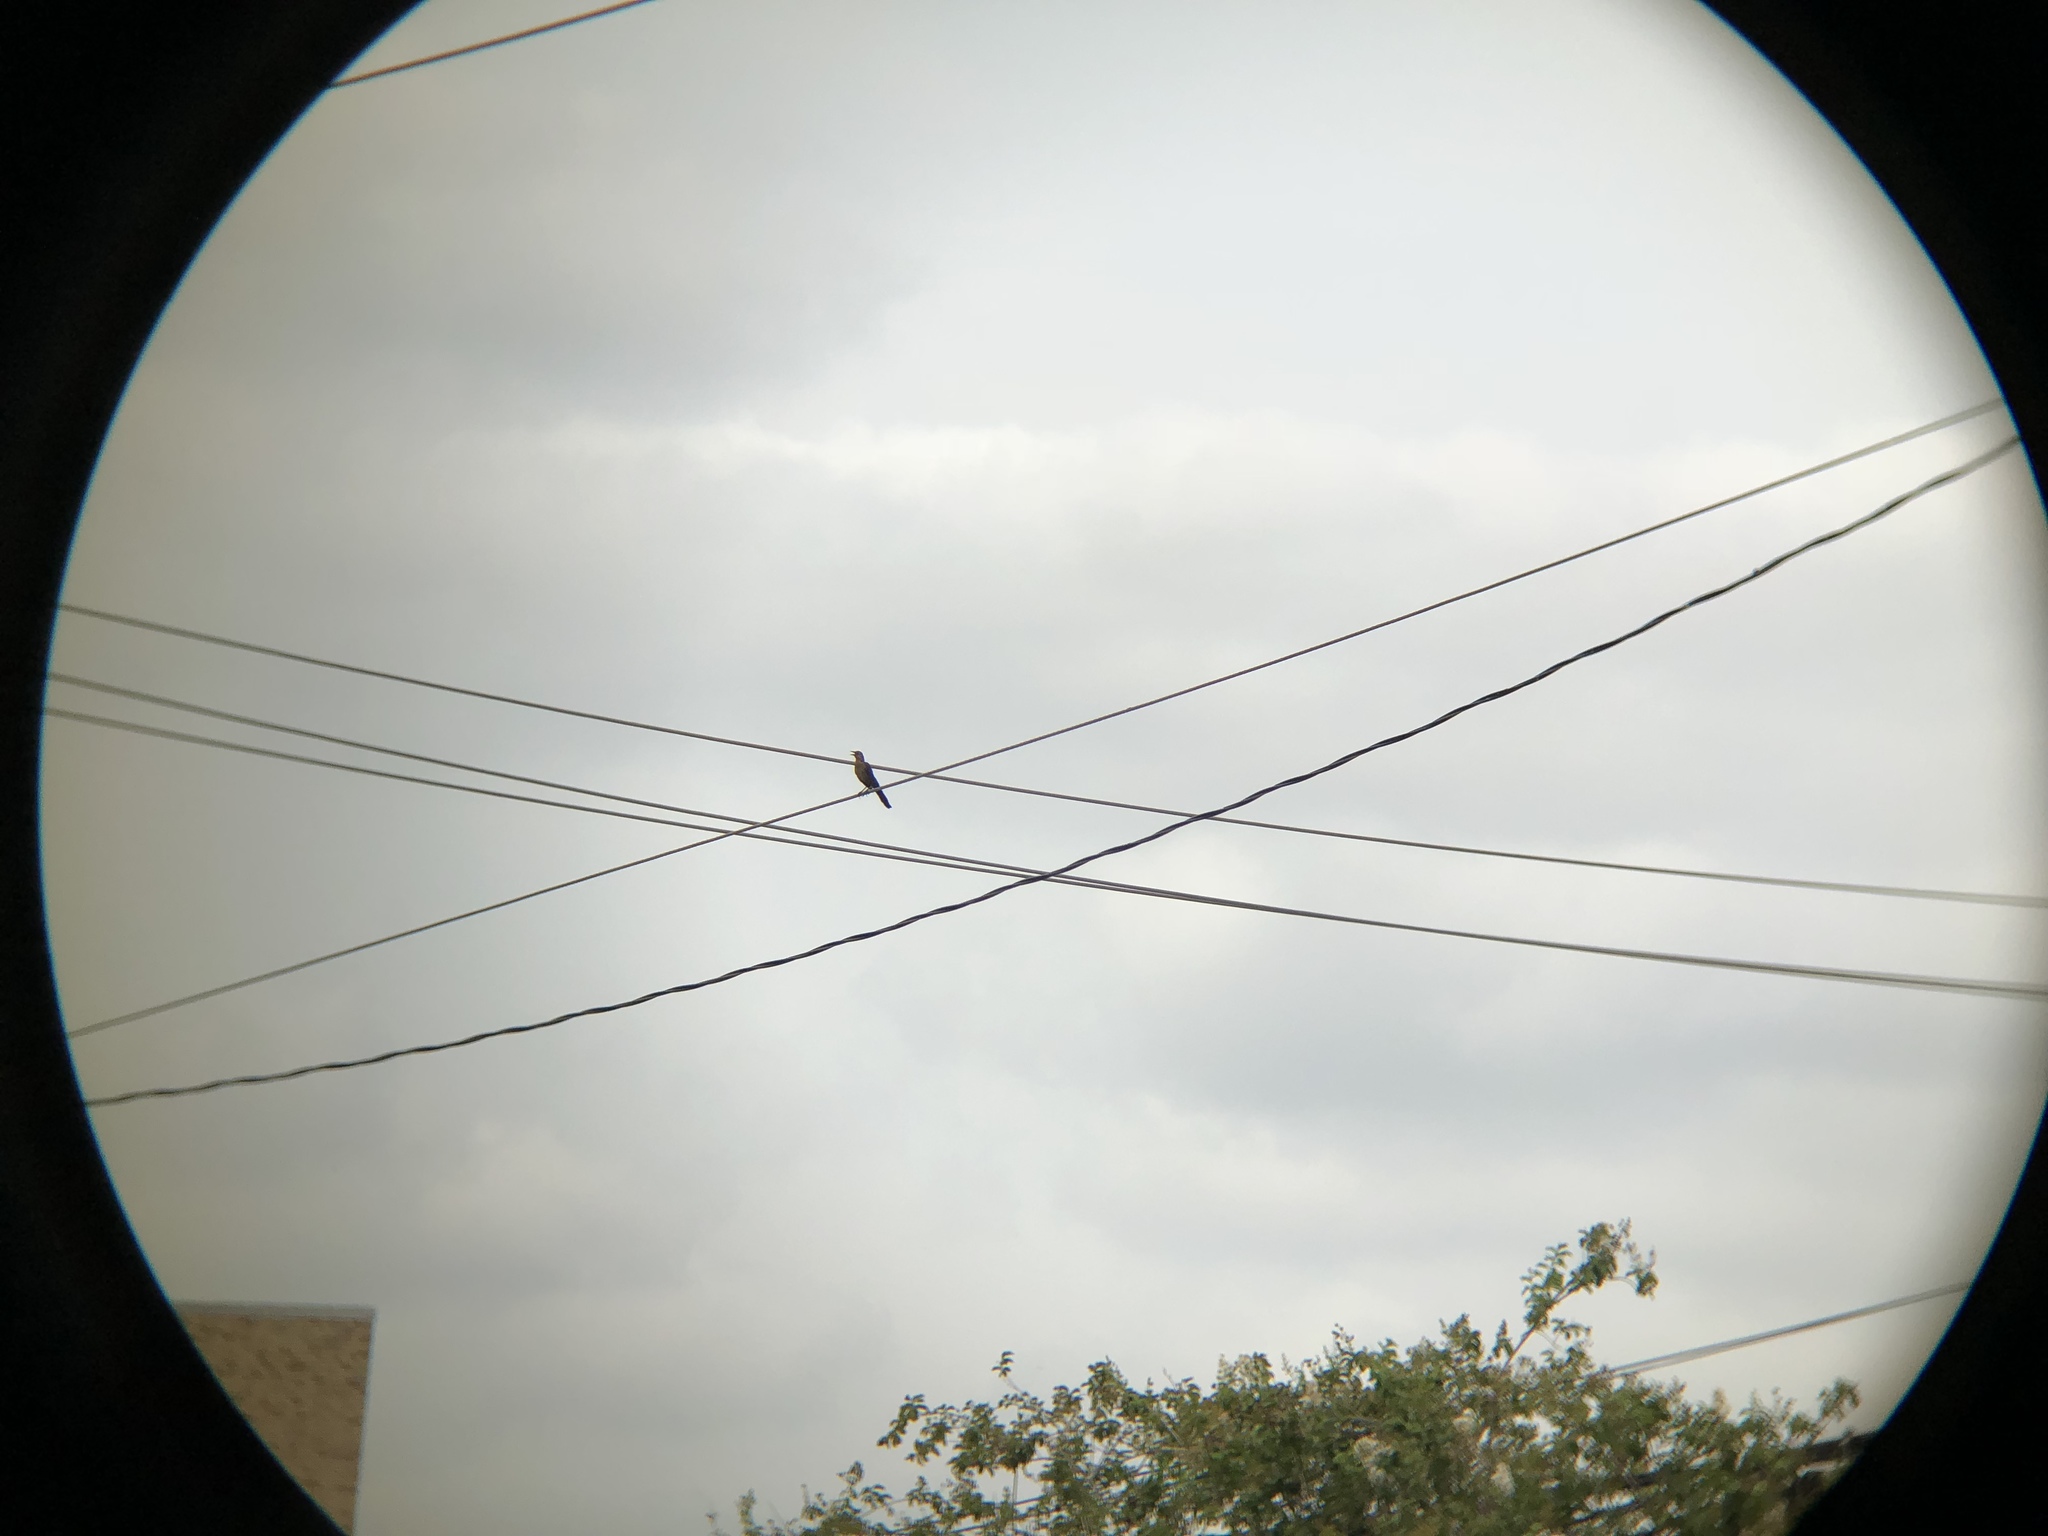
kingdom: Animalia
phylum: Chordata
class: Aves
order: Passeriformes
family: Icteridae
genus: Quiscalus
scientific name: Quiscalus mexicanus
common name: Great-tailed grackle
